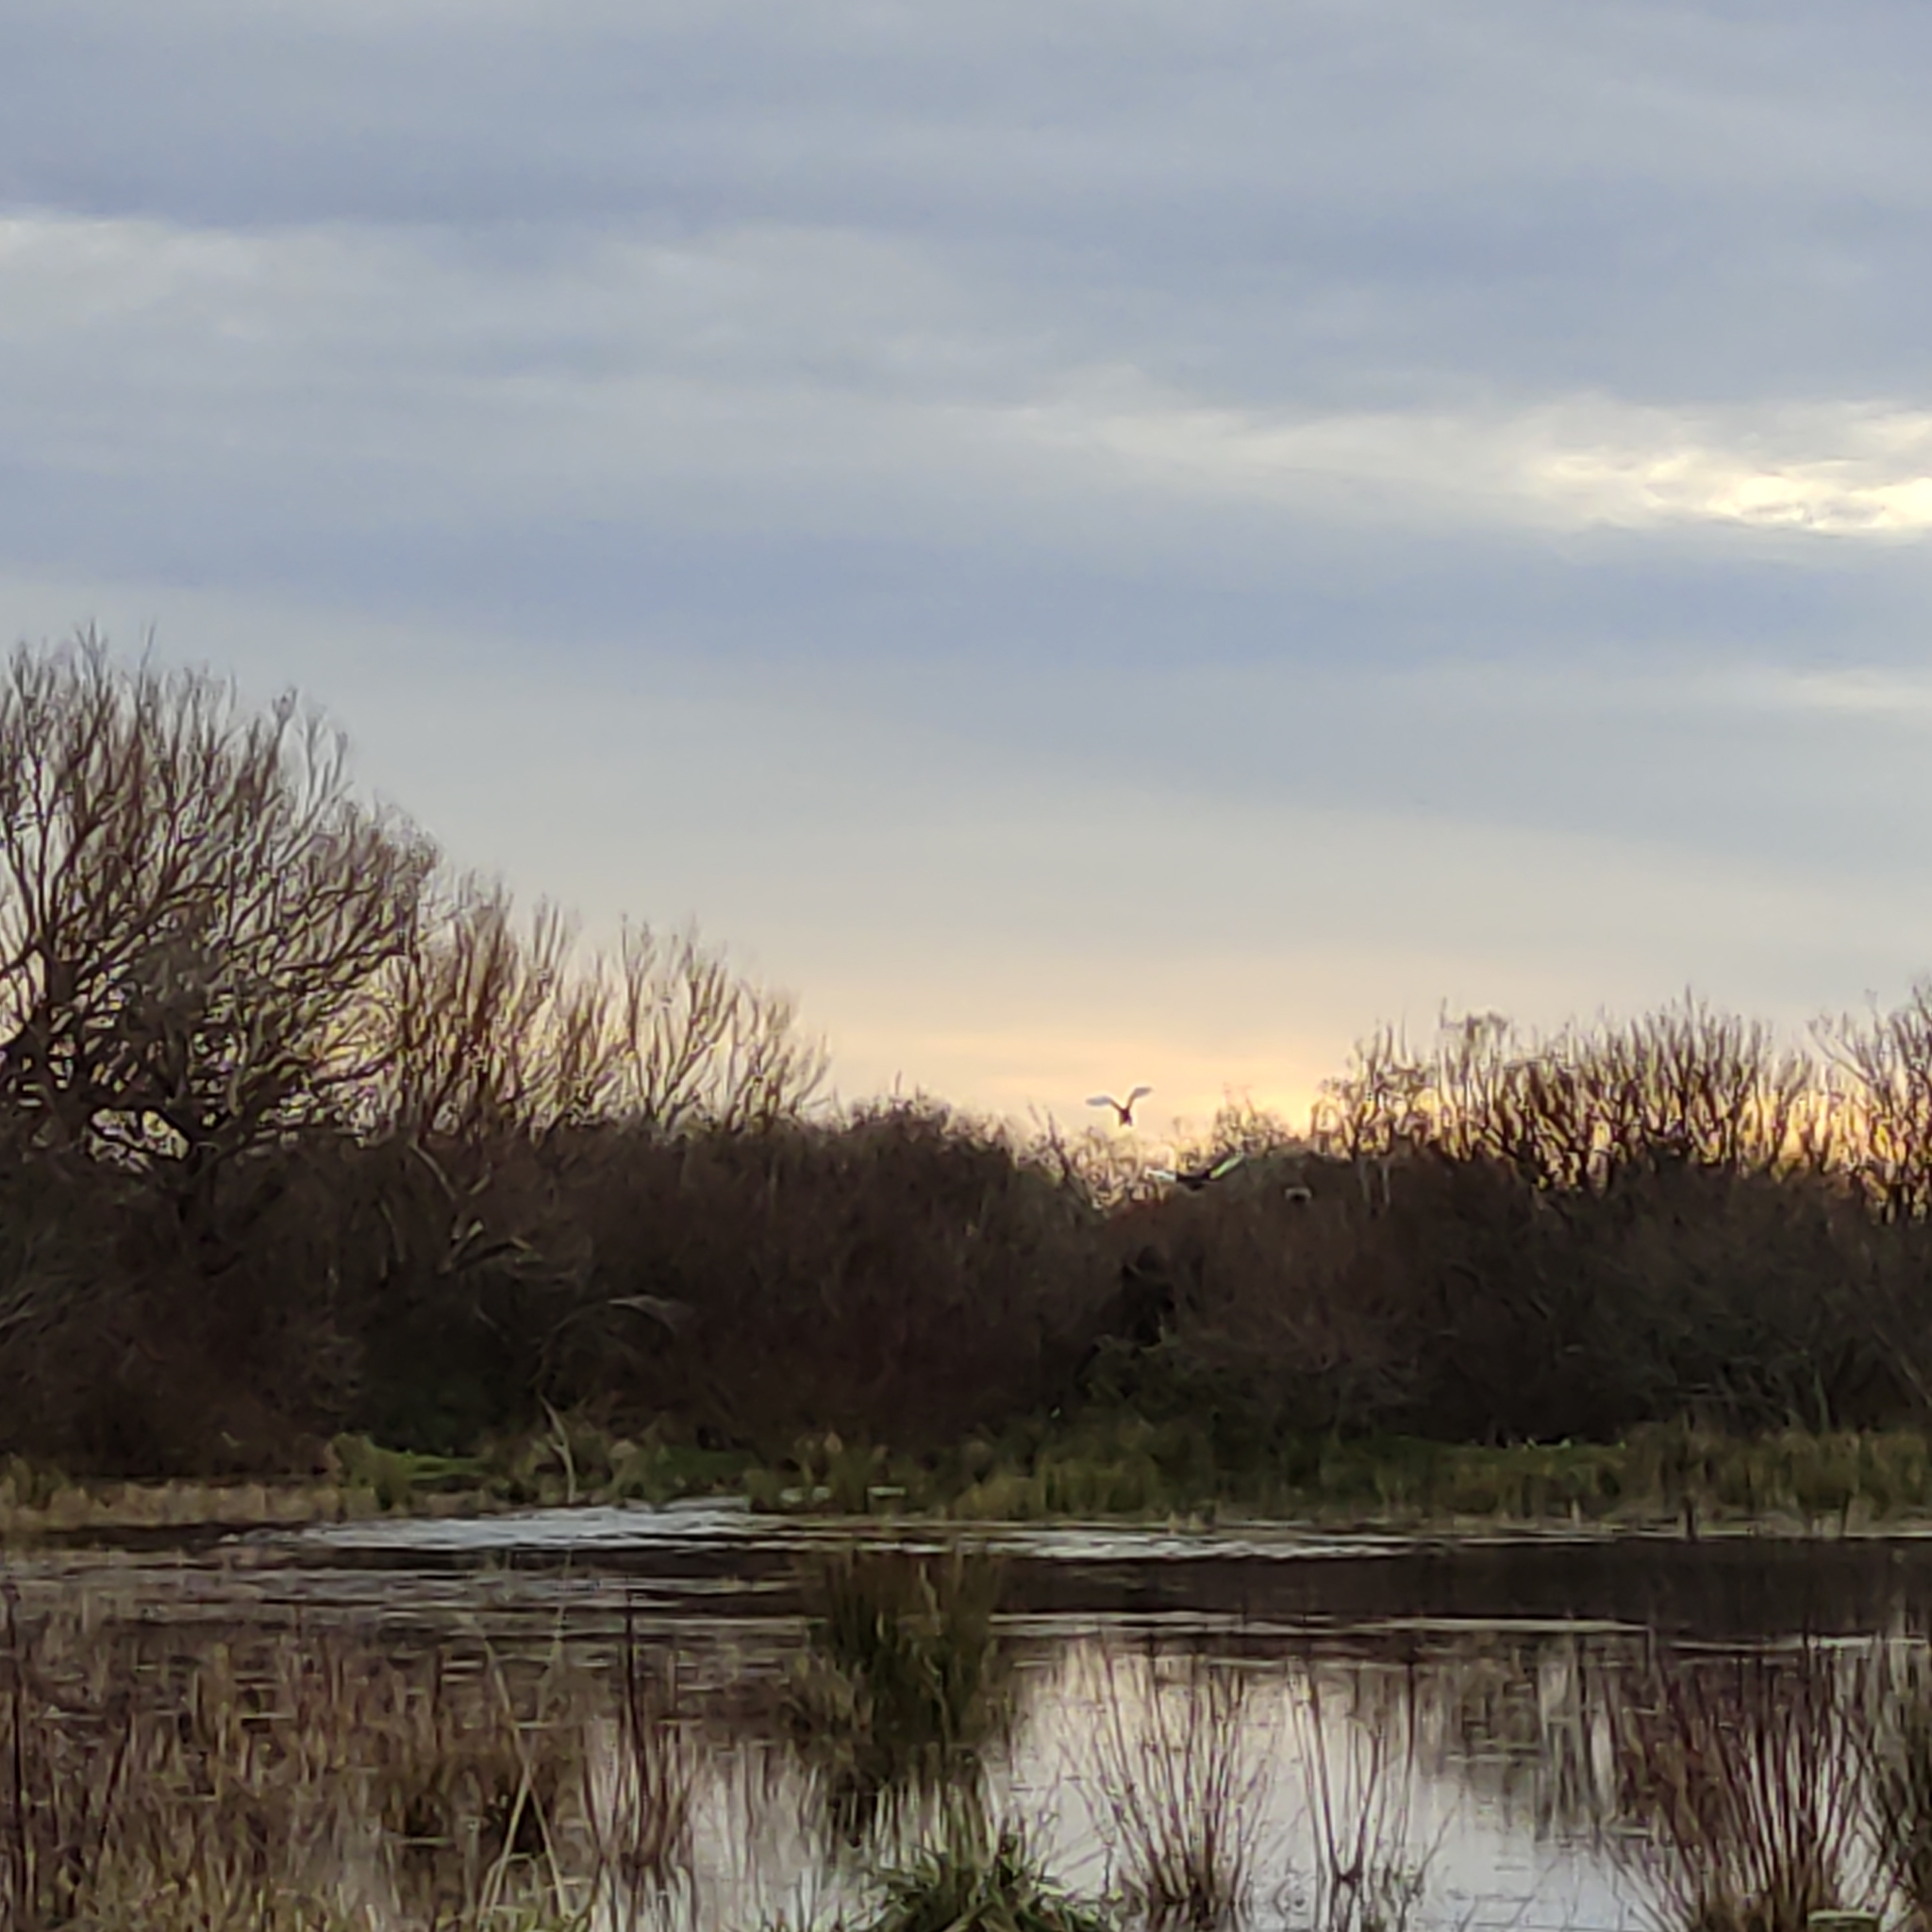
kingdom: Animalia
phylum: Chordata
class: Aves
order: Anseriformes
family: Anatidae
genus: Cygnus
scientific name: Cygnus atratus
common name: Black swan
